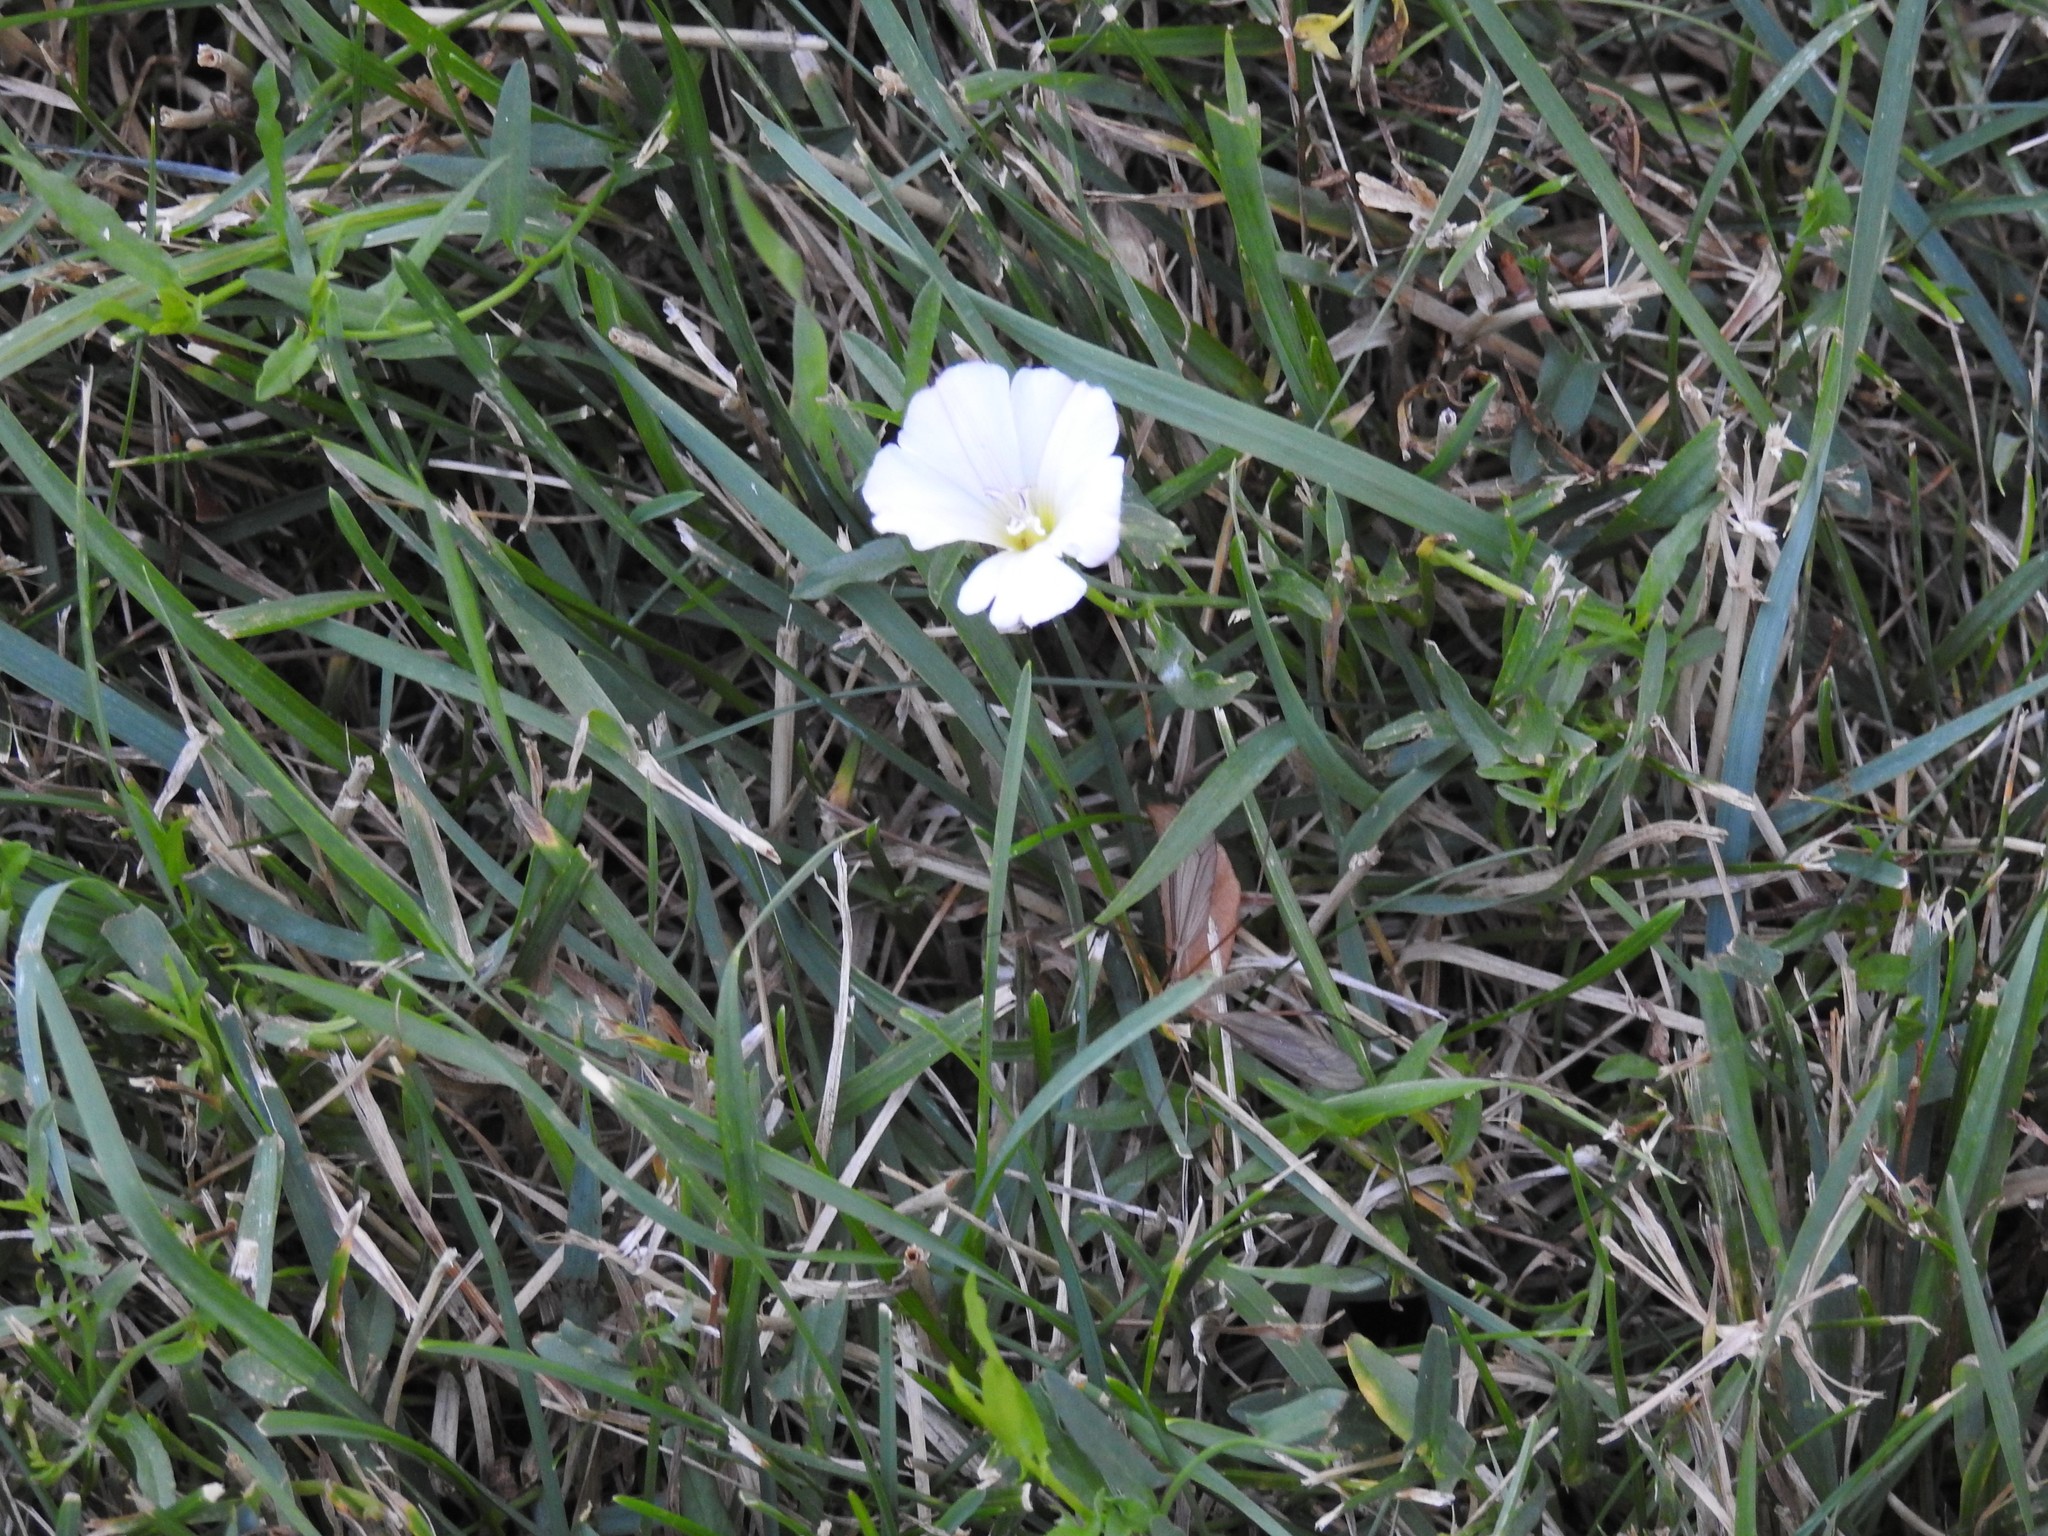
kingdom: Plantae
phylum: Tracheophyta
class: Magnoliopsida
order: Solanales
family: Convolvulaceae
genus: Convolvulus
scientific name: Convolvulus arvensis
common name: Field bindweed
